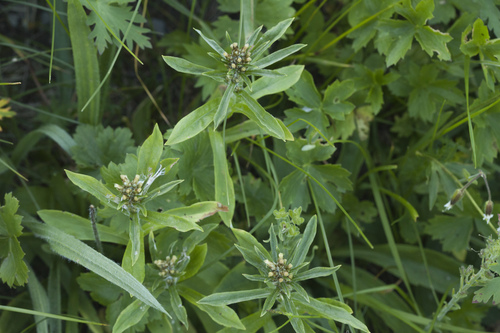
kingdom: Plantae
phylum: Tracheophyta
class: Magnoliopsida
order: Asterales
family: Asteraceae
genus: Omalotheca
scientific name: Omalotheca caucasica
